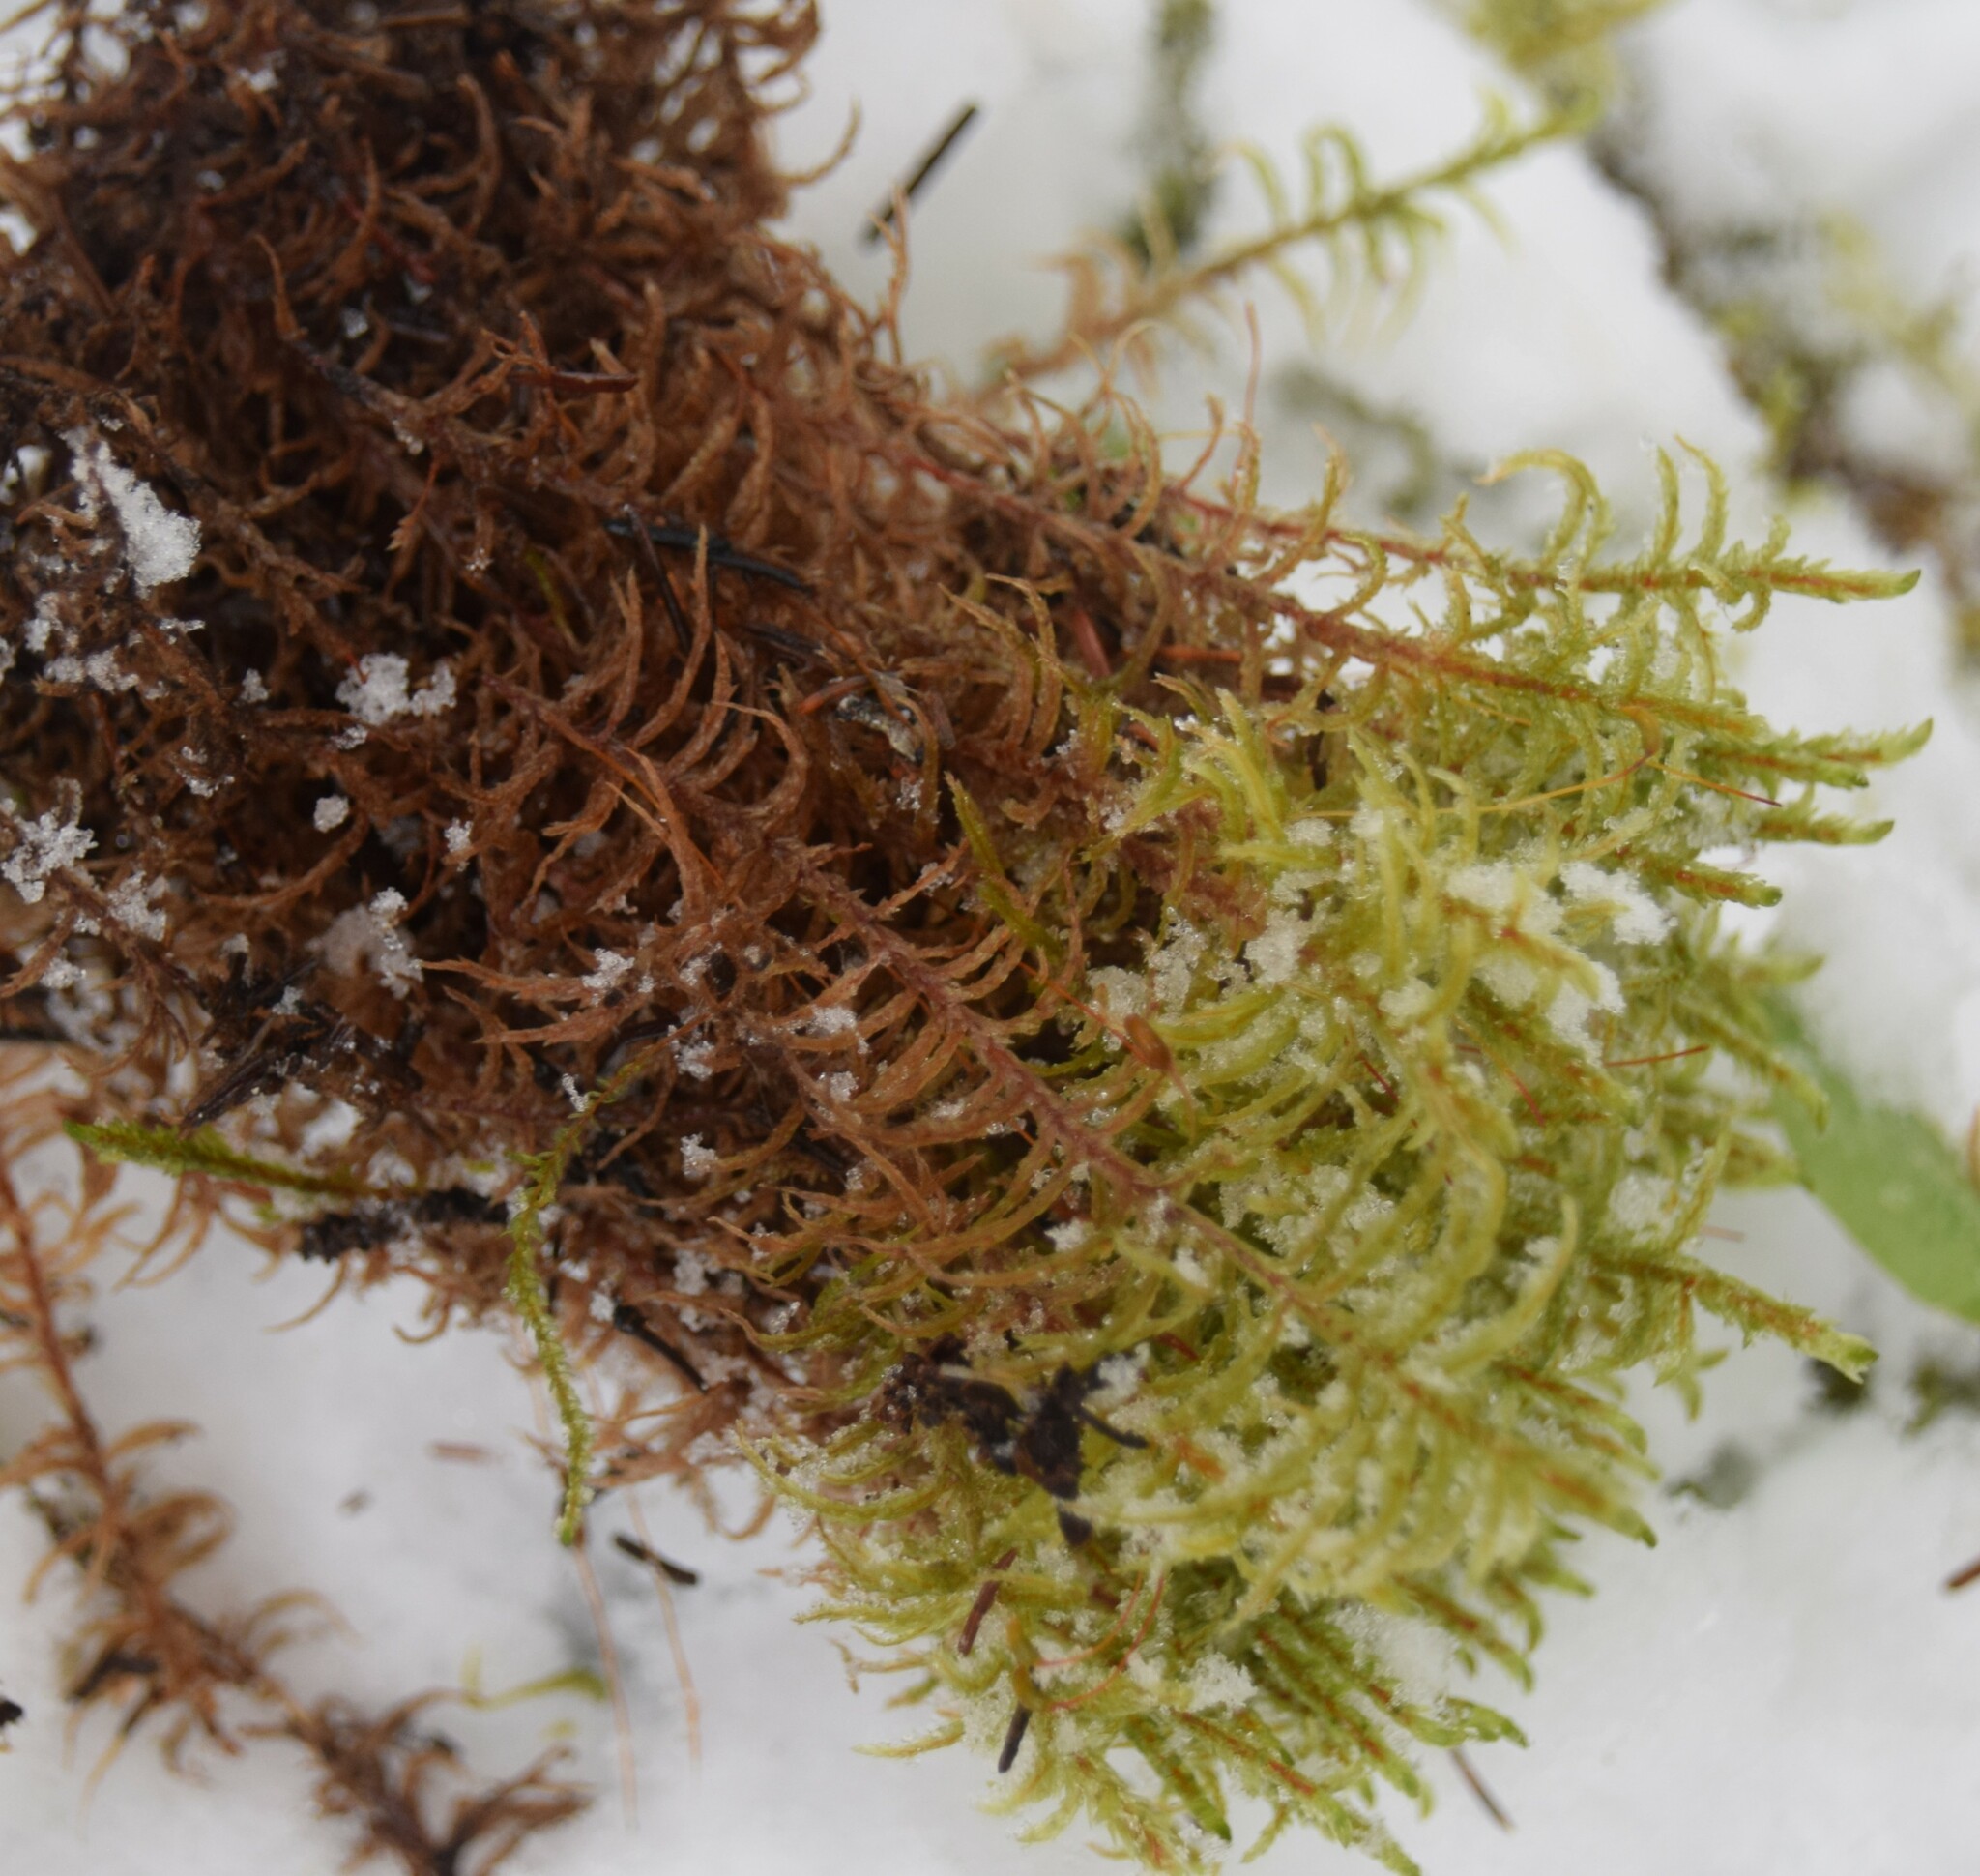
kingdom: Plantae
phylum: Bryophyta
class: Bryopsida
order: Hypnales
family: Hylocomiaceae
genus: Pleurozium
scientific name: Pleurozium schreberi
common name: Red-stemmed feather moss
